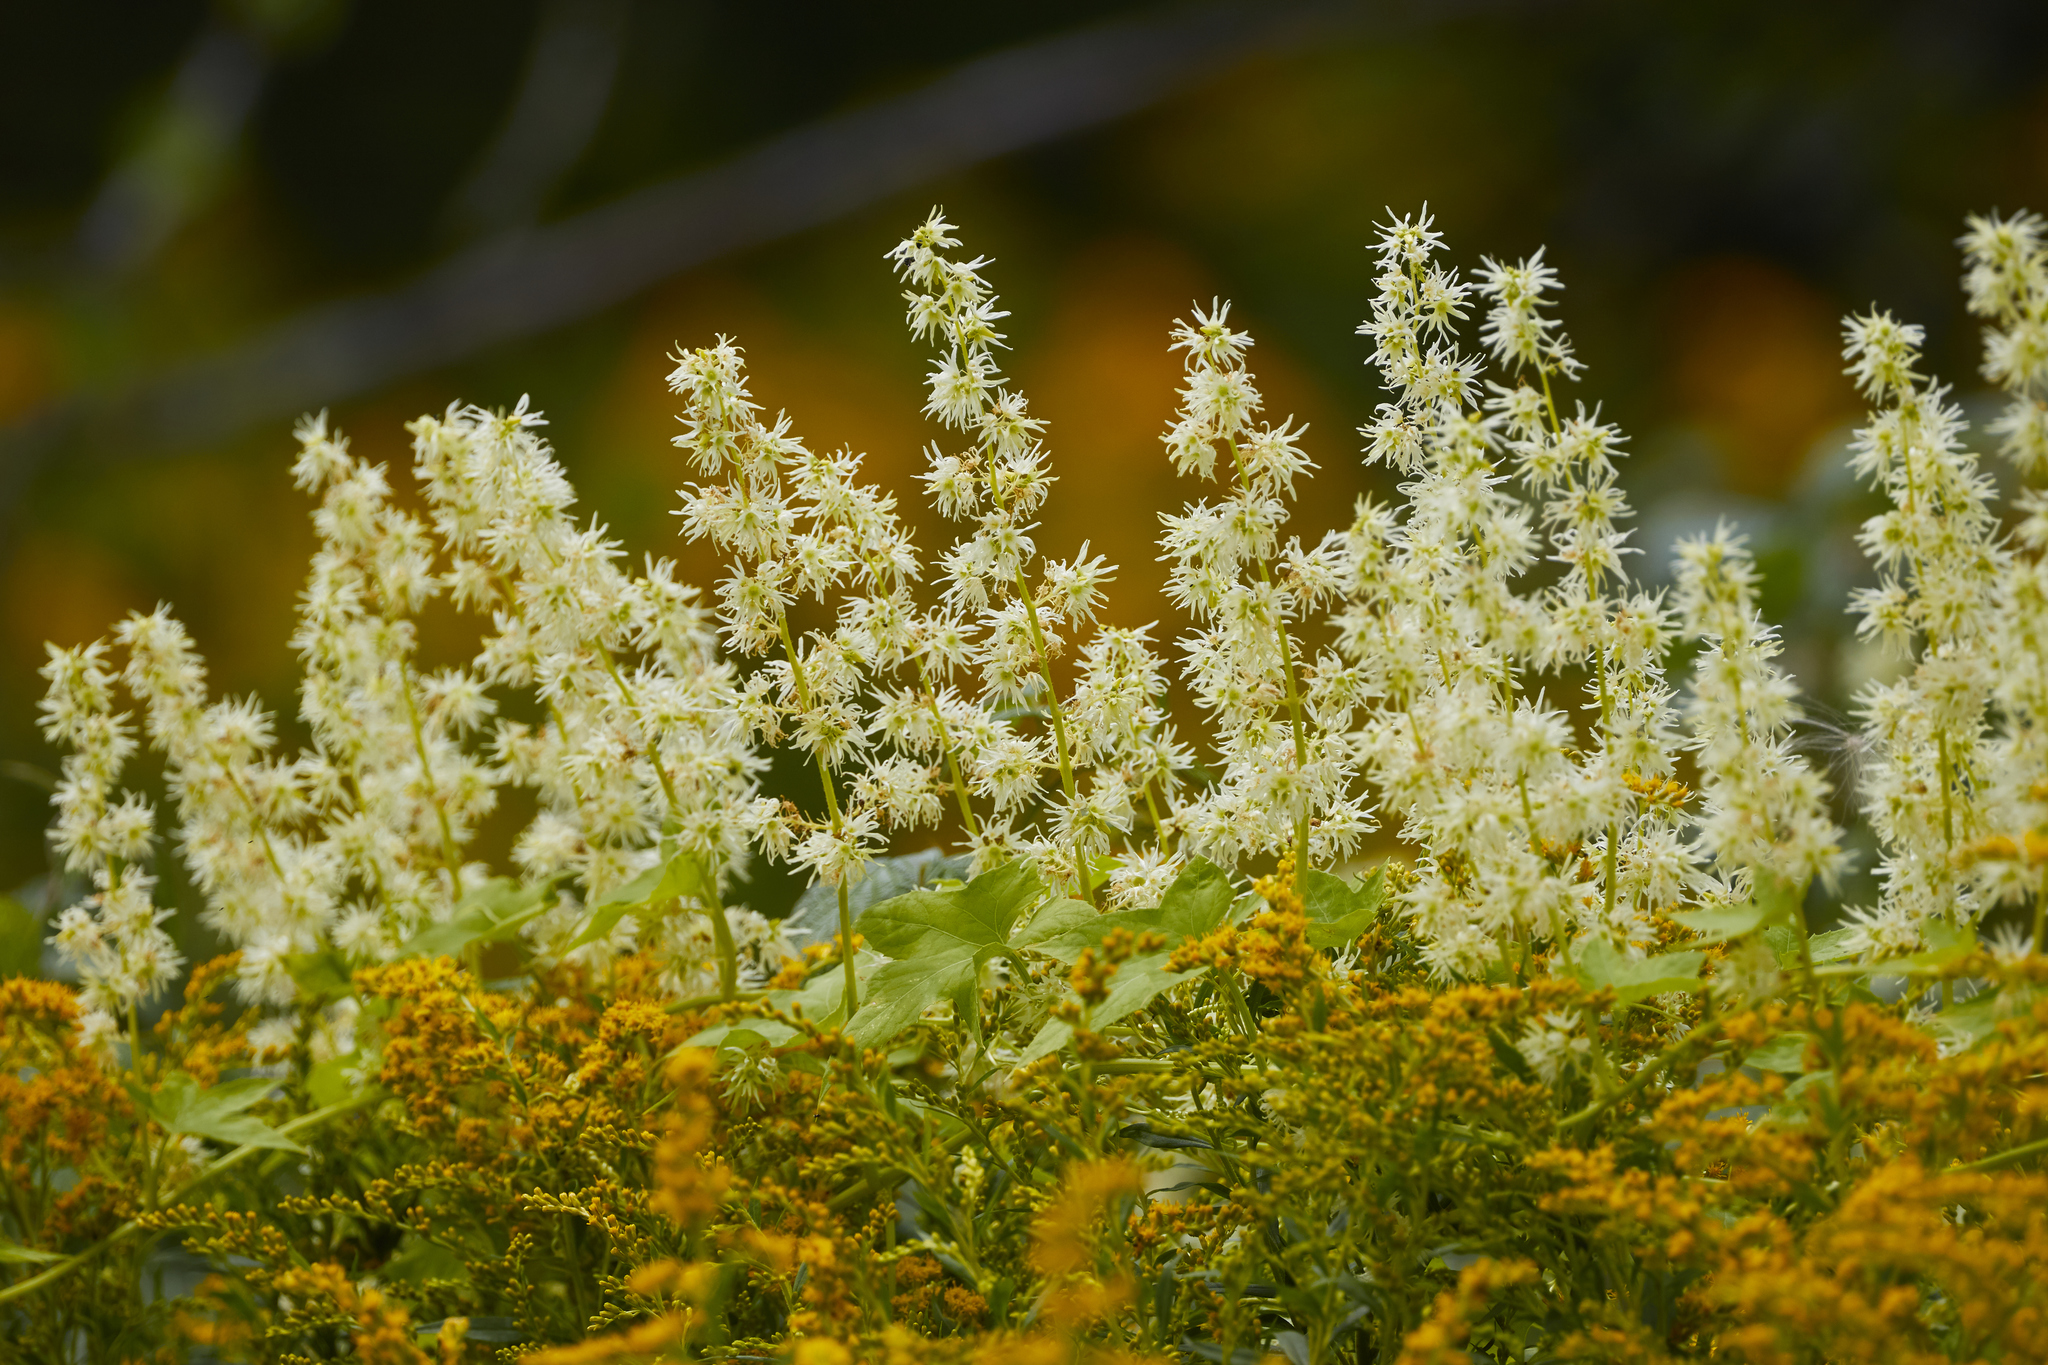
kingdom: Plantae
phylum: Tracheophyta
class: Magnoliopsida
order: Cucurbitales
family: Cucurbitaceae
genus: Echinocystis
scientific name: Echinocystis lobata
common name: Wild cucumber
